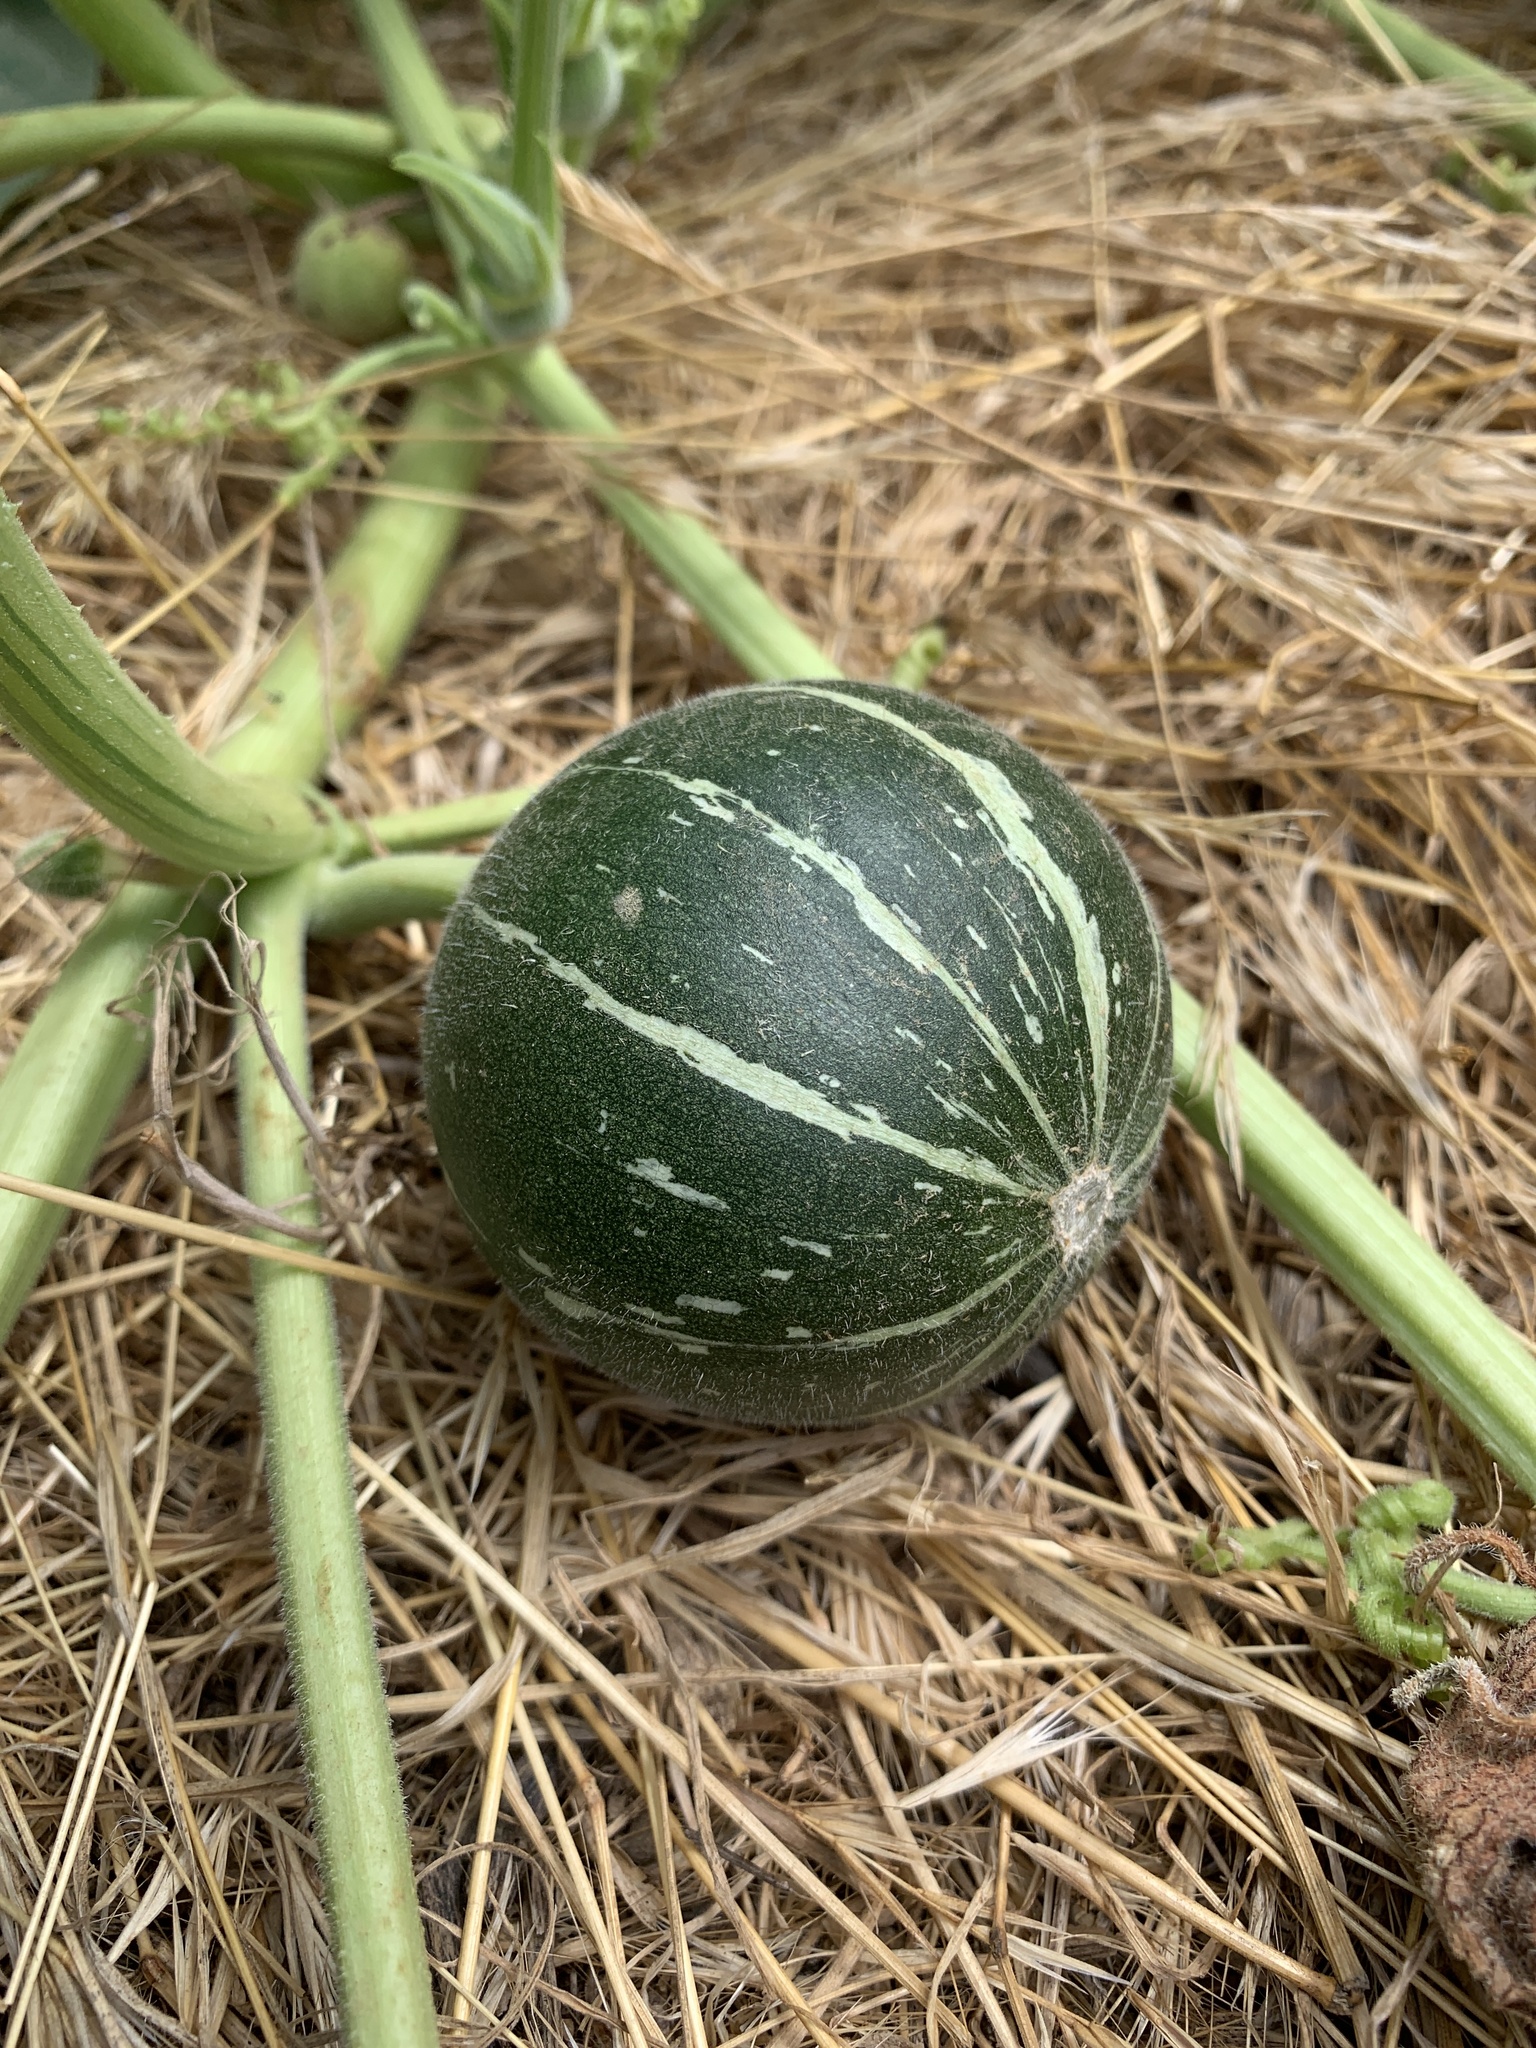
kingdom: Plantae
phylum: Tracheophyta
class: Magnoliopsida
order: Cucurbitales
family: Cucurbitaceae
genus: Cucurbita
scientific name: Cucurbita foetidissima
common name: Buffalo gourd
